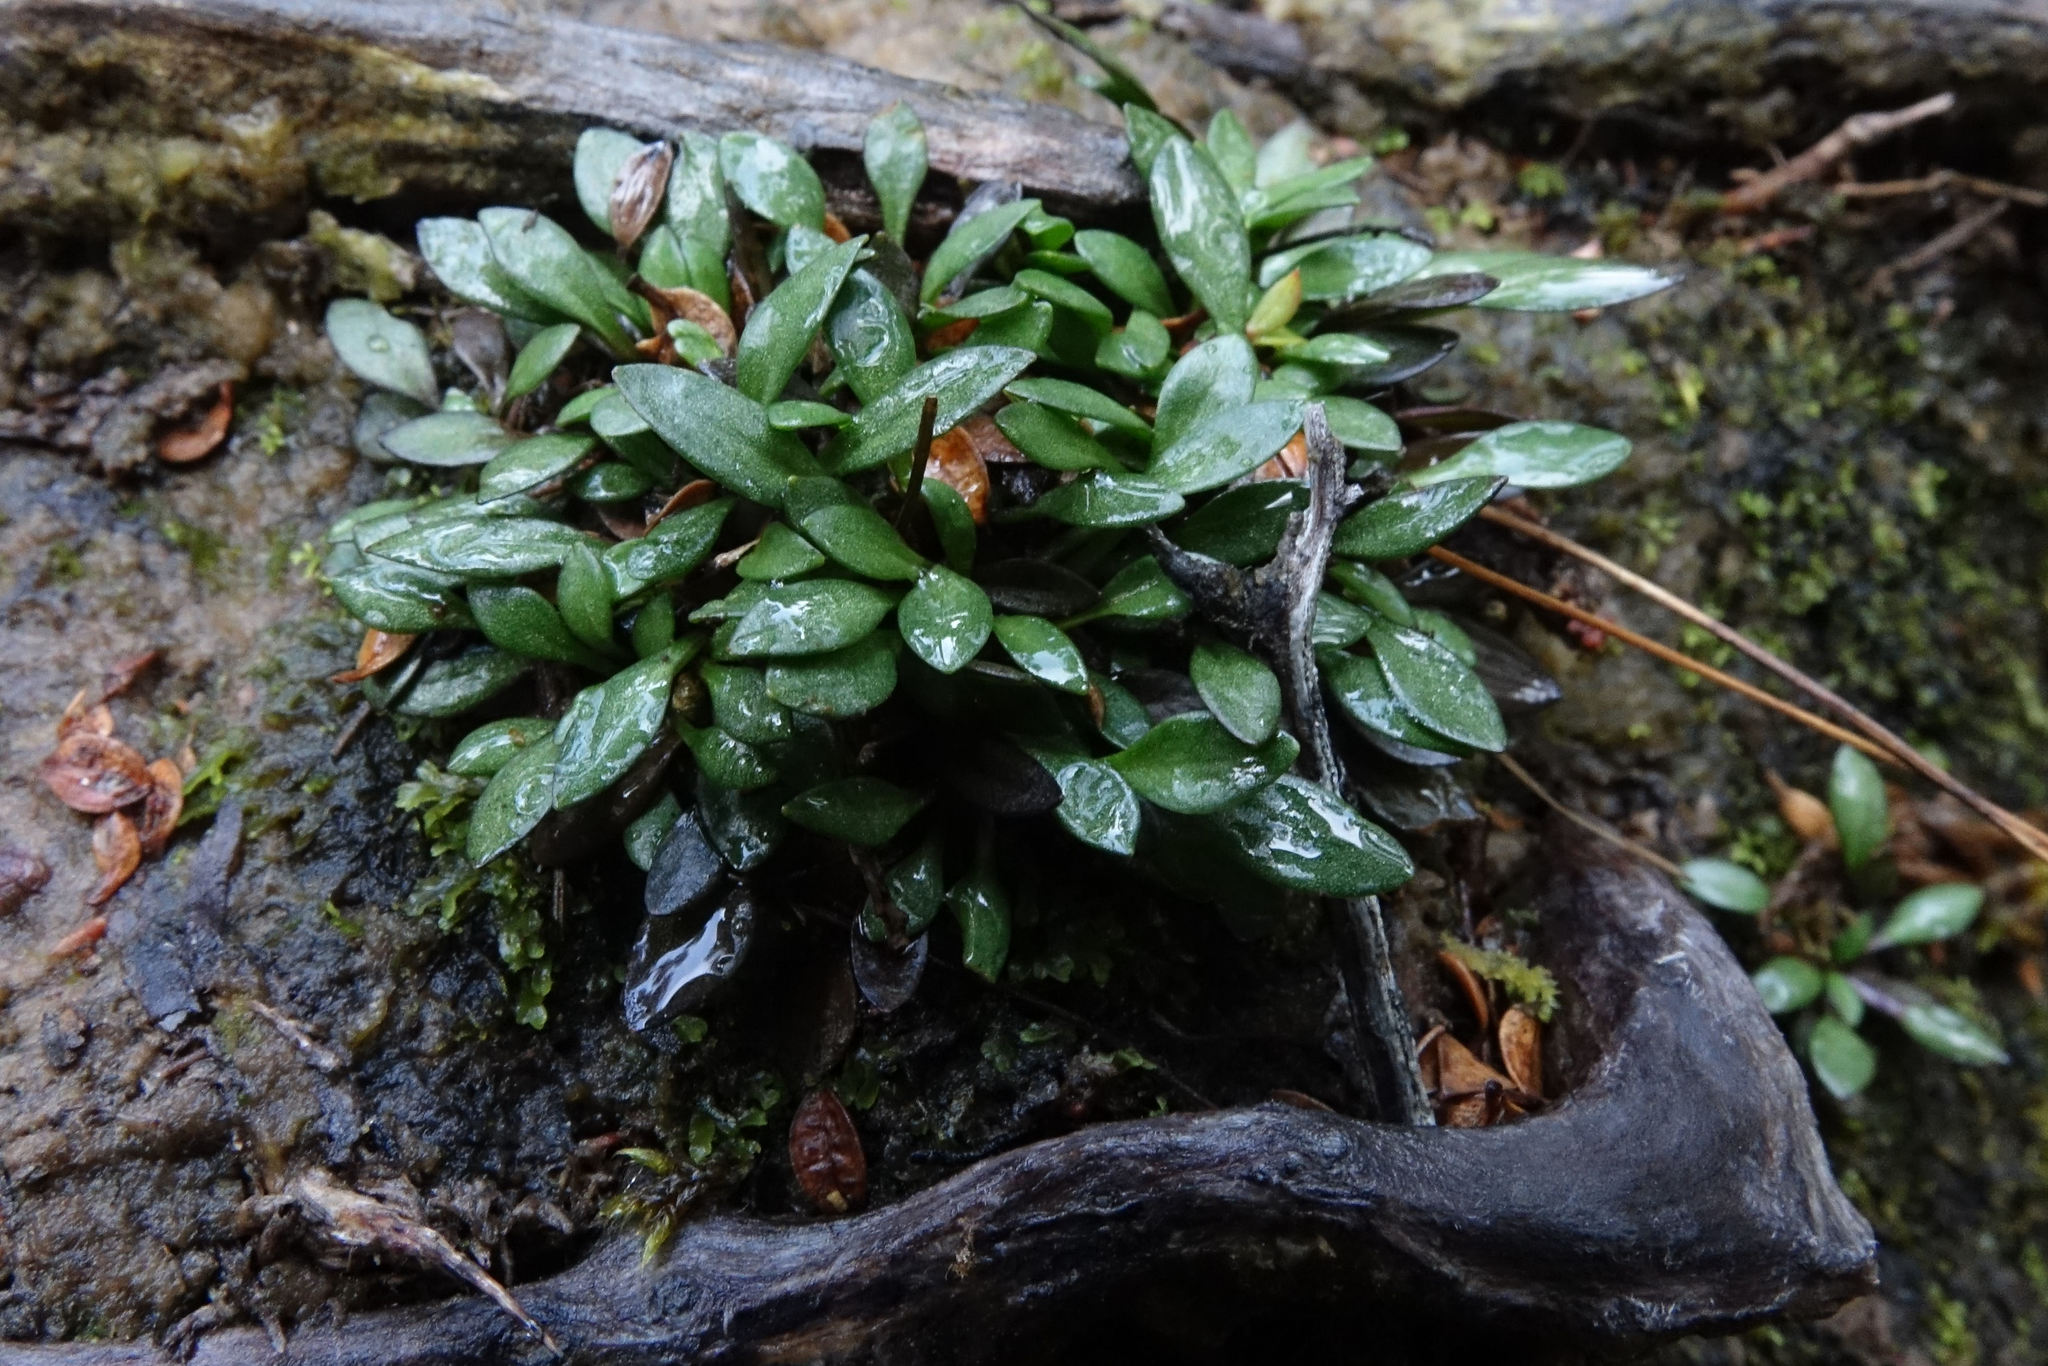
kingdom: Plantae
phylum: Tracheophyta
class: Magnoliopsida
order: Gentianales
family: Gentianaceae
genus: Gentianella
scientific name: Gentianella lineata
